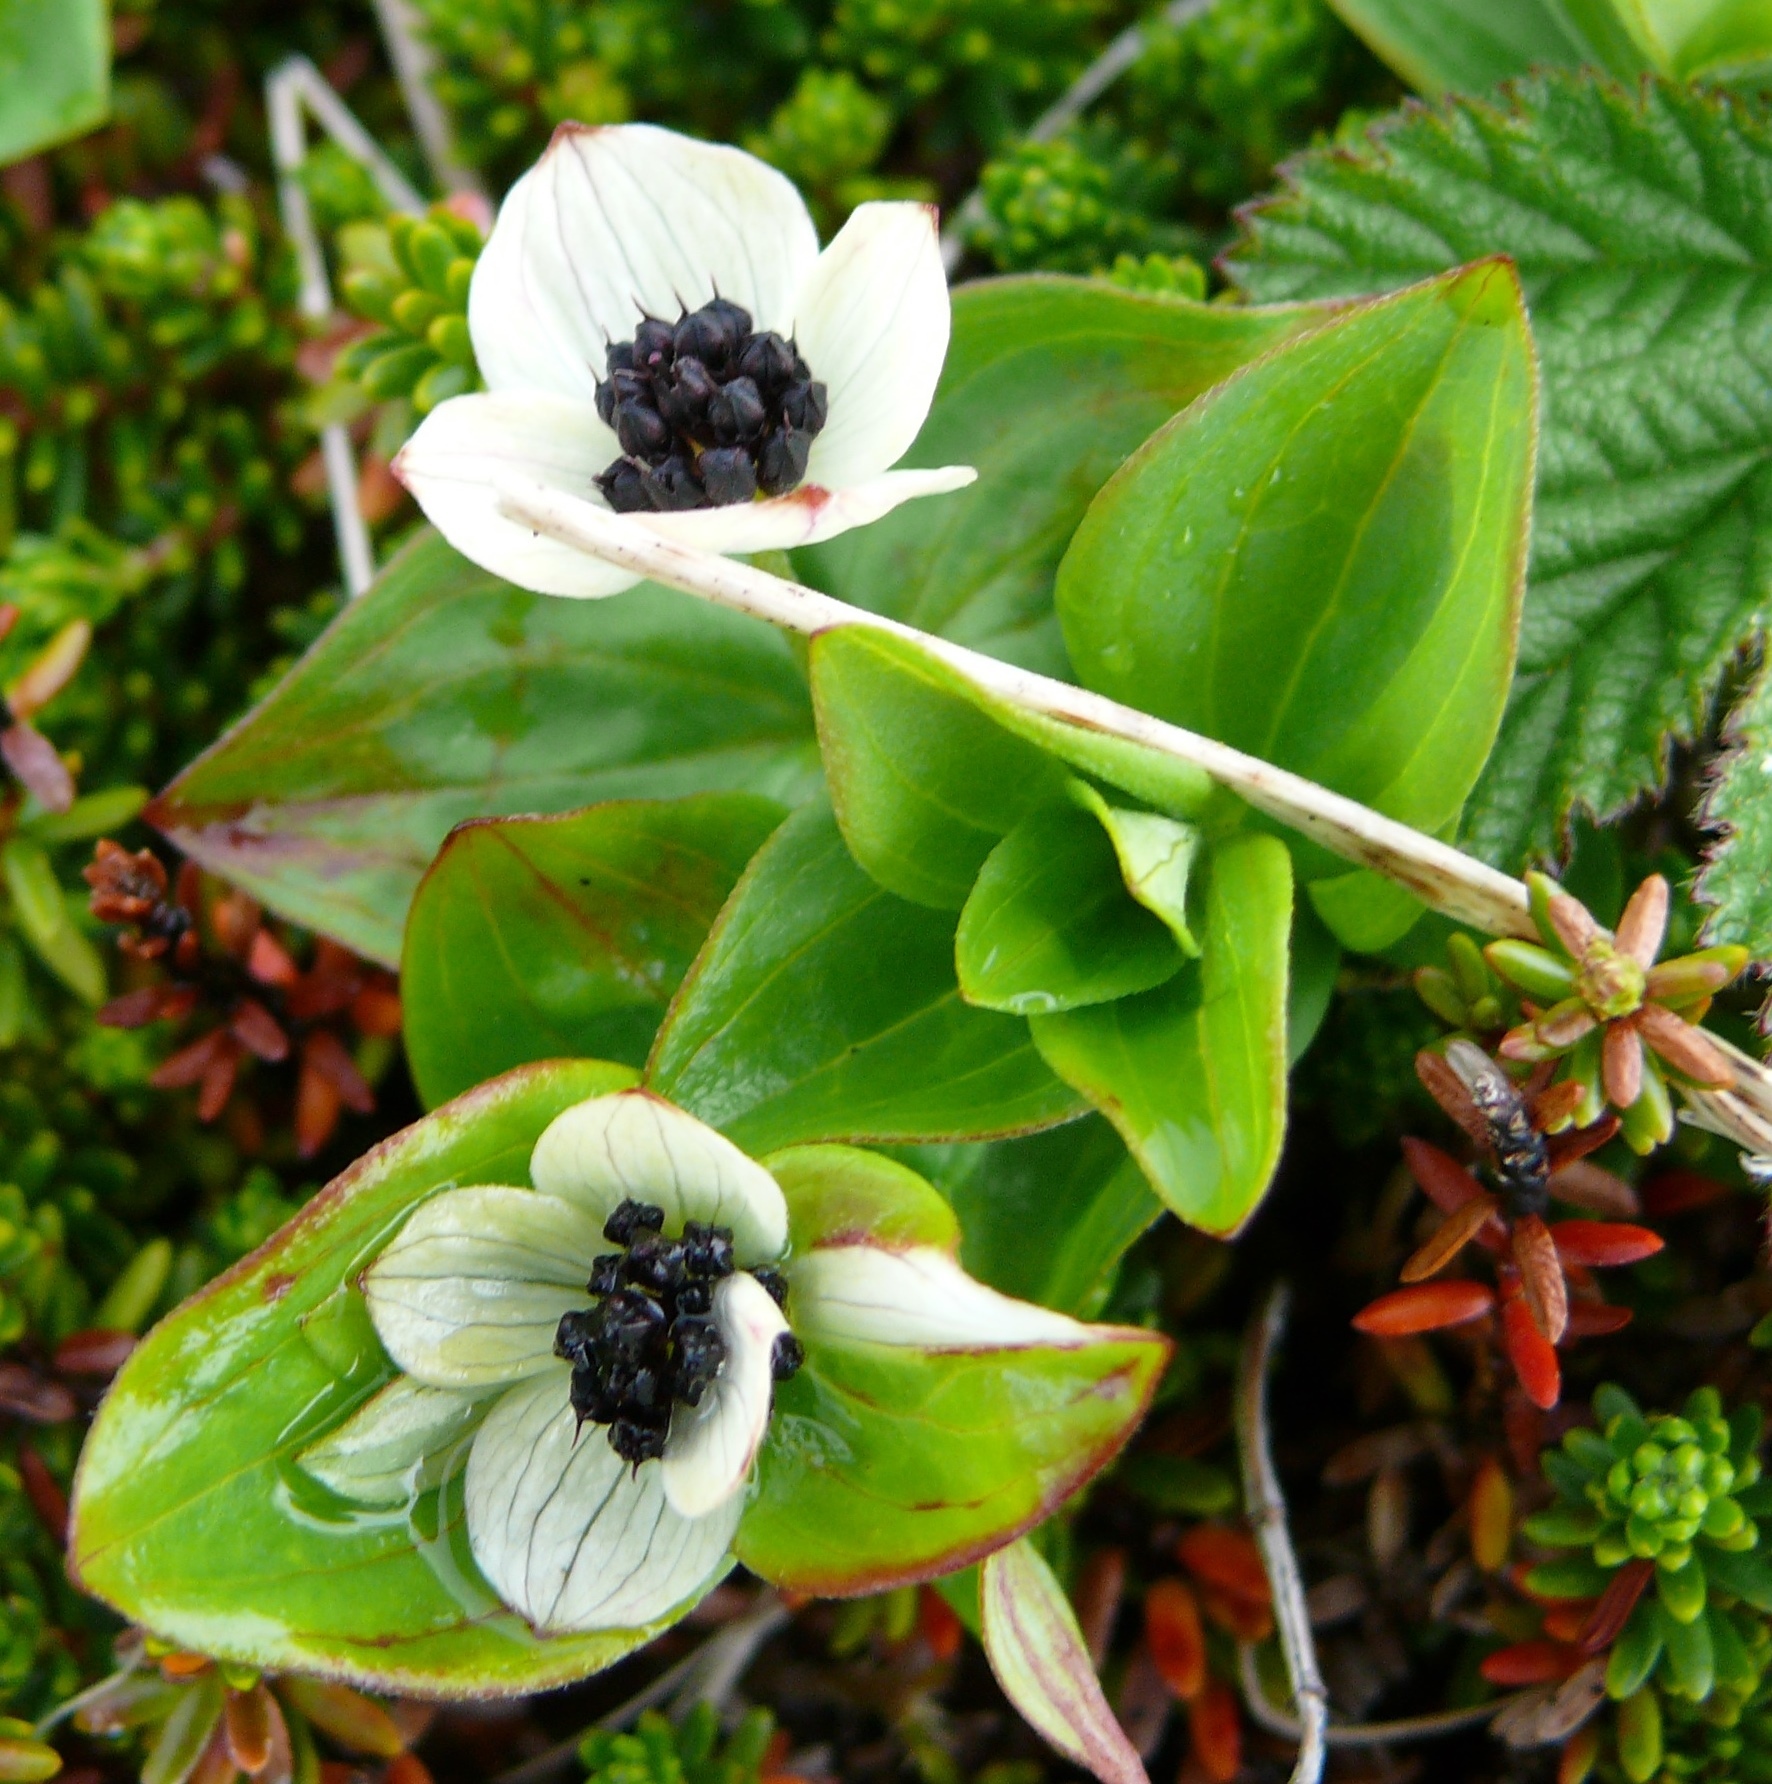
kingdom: Plantae
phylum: Tracheophyta
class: Magnoliopsida
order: Cornales
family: Cornaceae
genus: Cornus
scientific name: Cornus suecica
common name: Dwarf cornel
